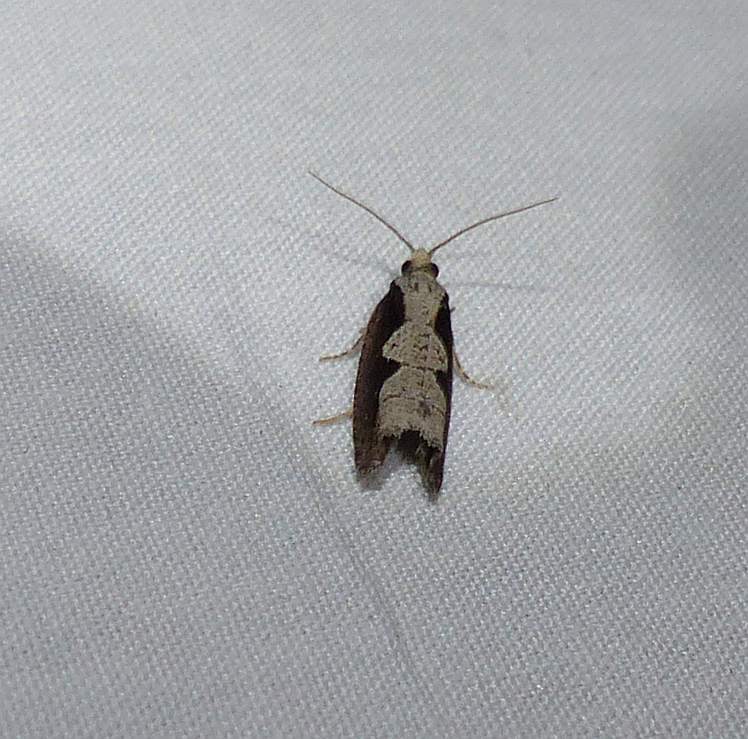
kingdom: Animalia
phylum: Arthropoda
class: Insecta
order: Lepidoptera
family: Tortricidae
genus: Epinotia
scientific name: Epinotia lindana
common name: Diamondback epinotia moth
